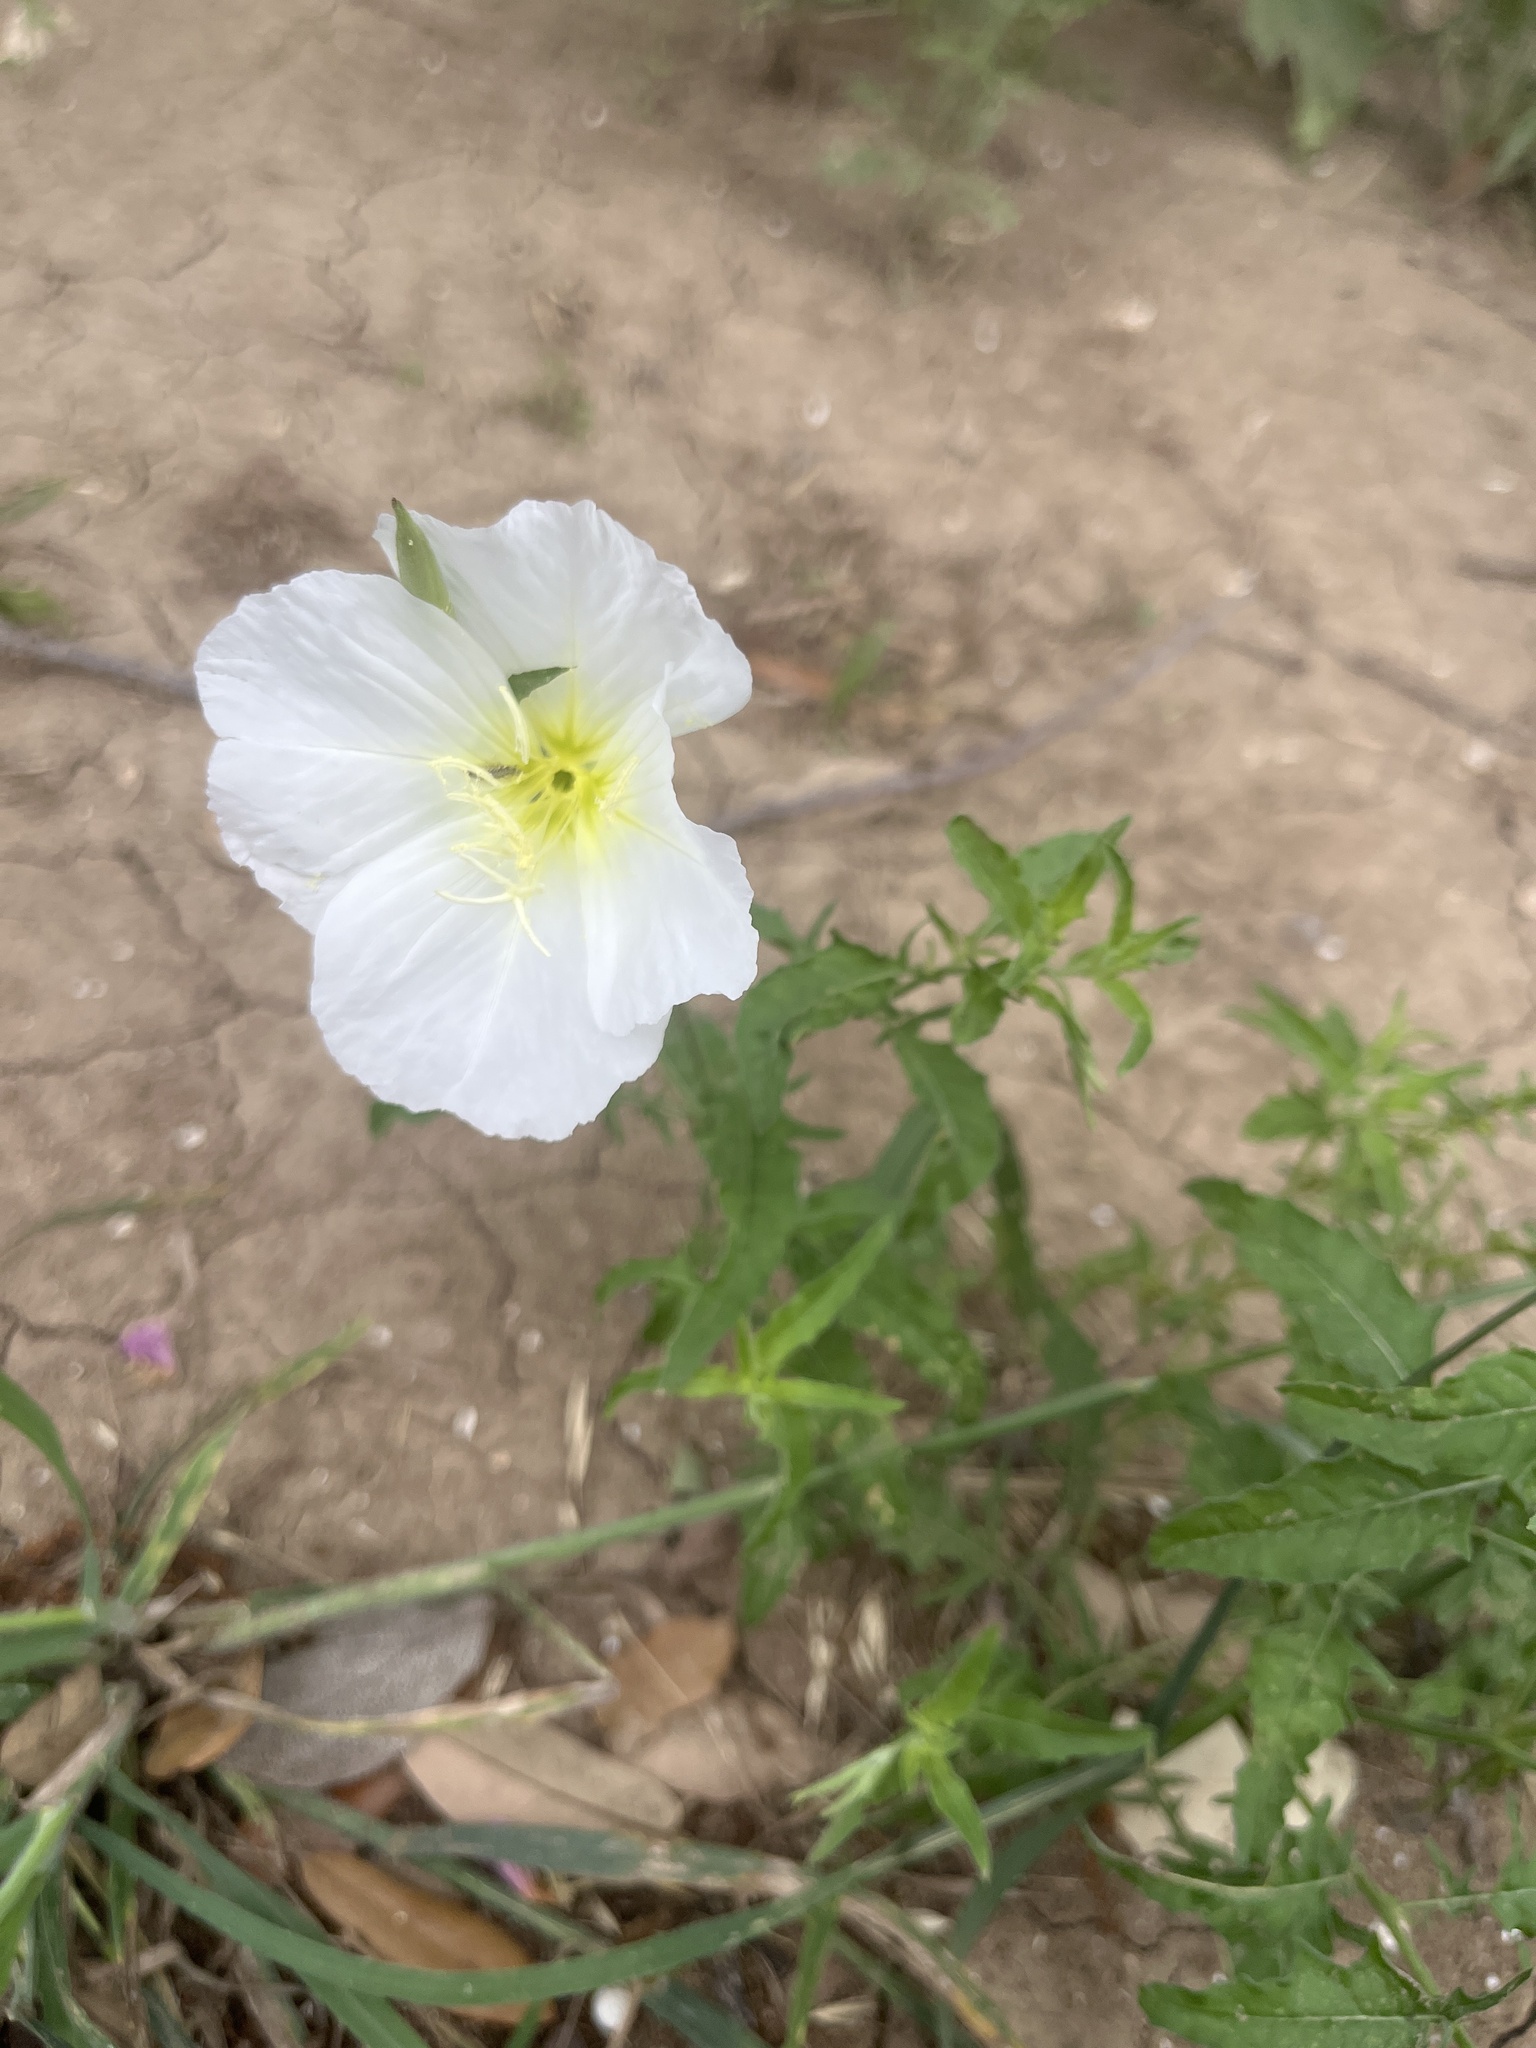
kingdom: Plantae
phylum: Tracheophyta
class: Magnoliopsida
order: Myrtales
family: Onagraceae
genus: Oenothera
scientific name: Oenothera speciosa
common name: White evening-primrose
